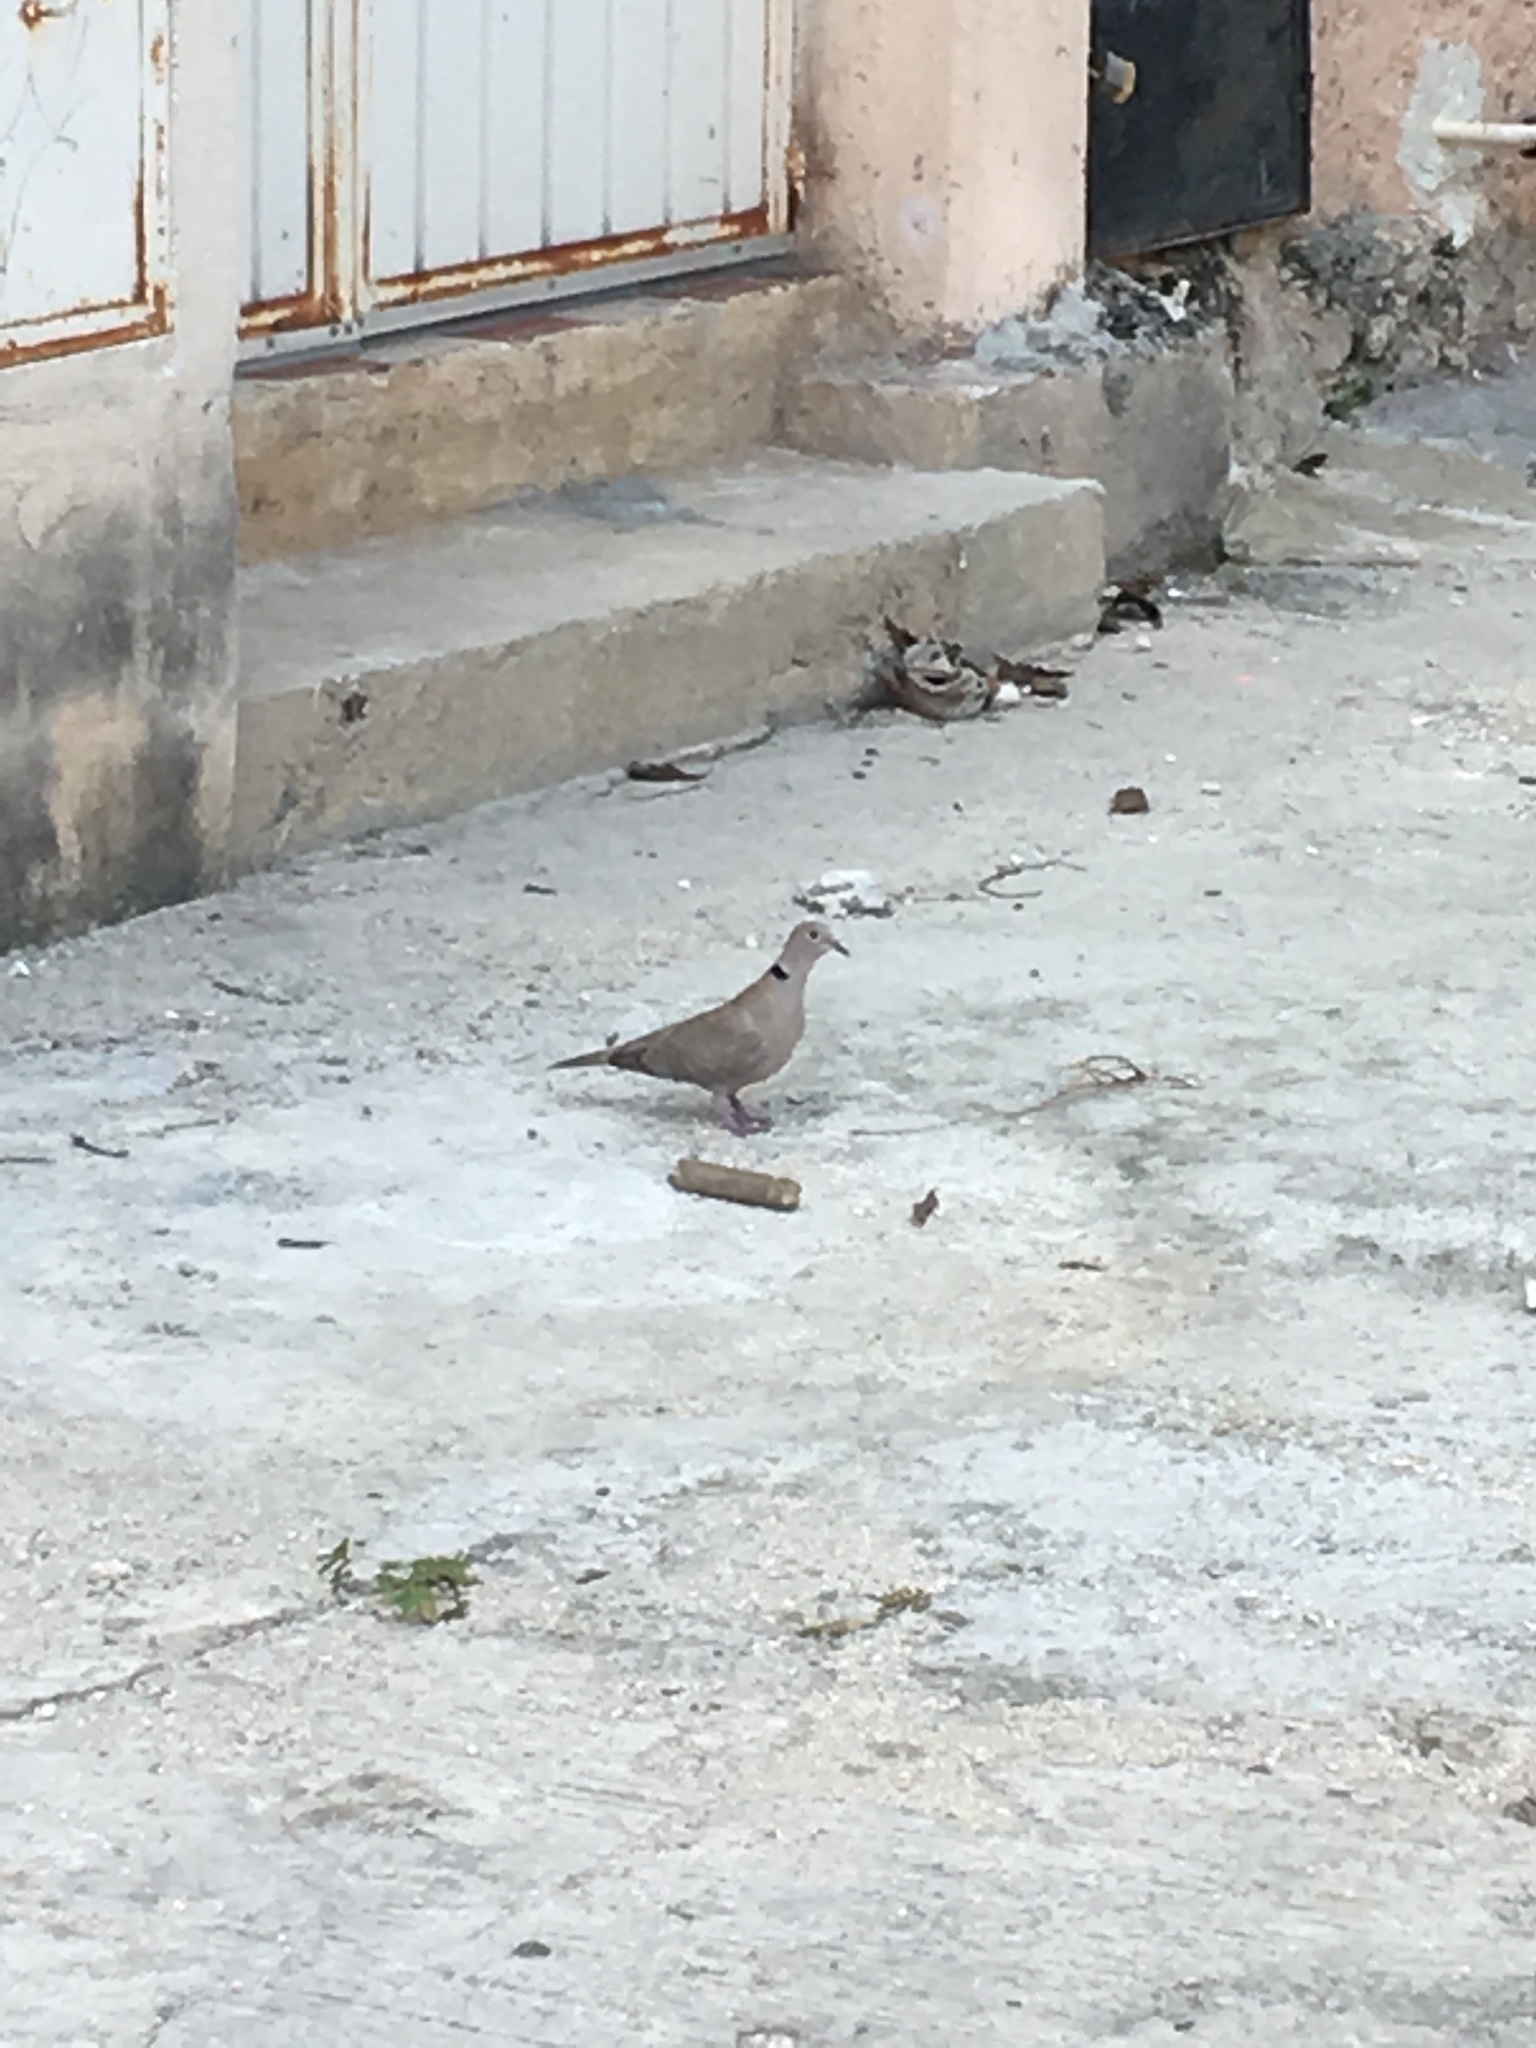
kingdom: Animalia
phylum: Chordata
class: Aves
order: Columbiformes
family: Columbidae
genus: Streptopelia
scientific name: Streptopelia decaocto
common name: Eurasian collared dove
